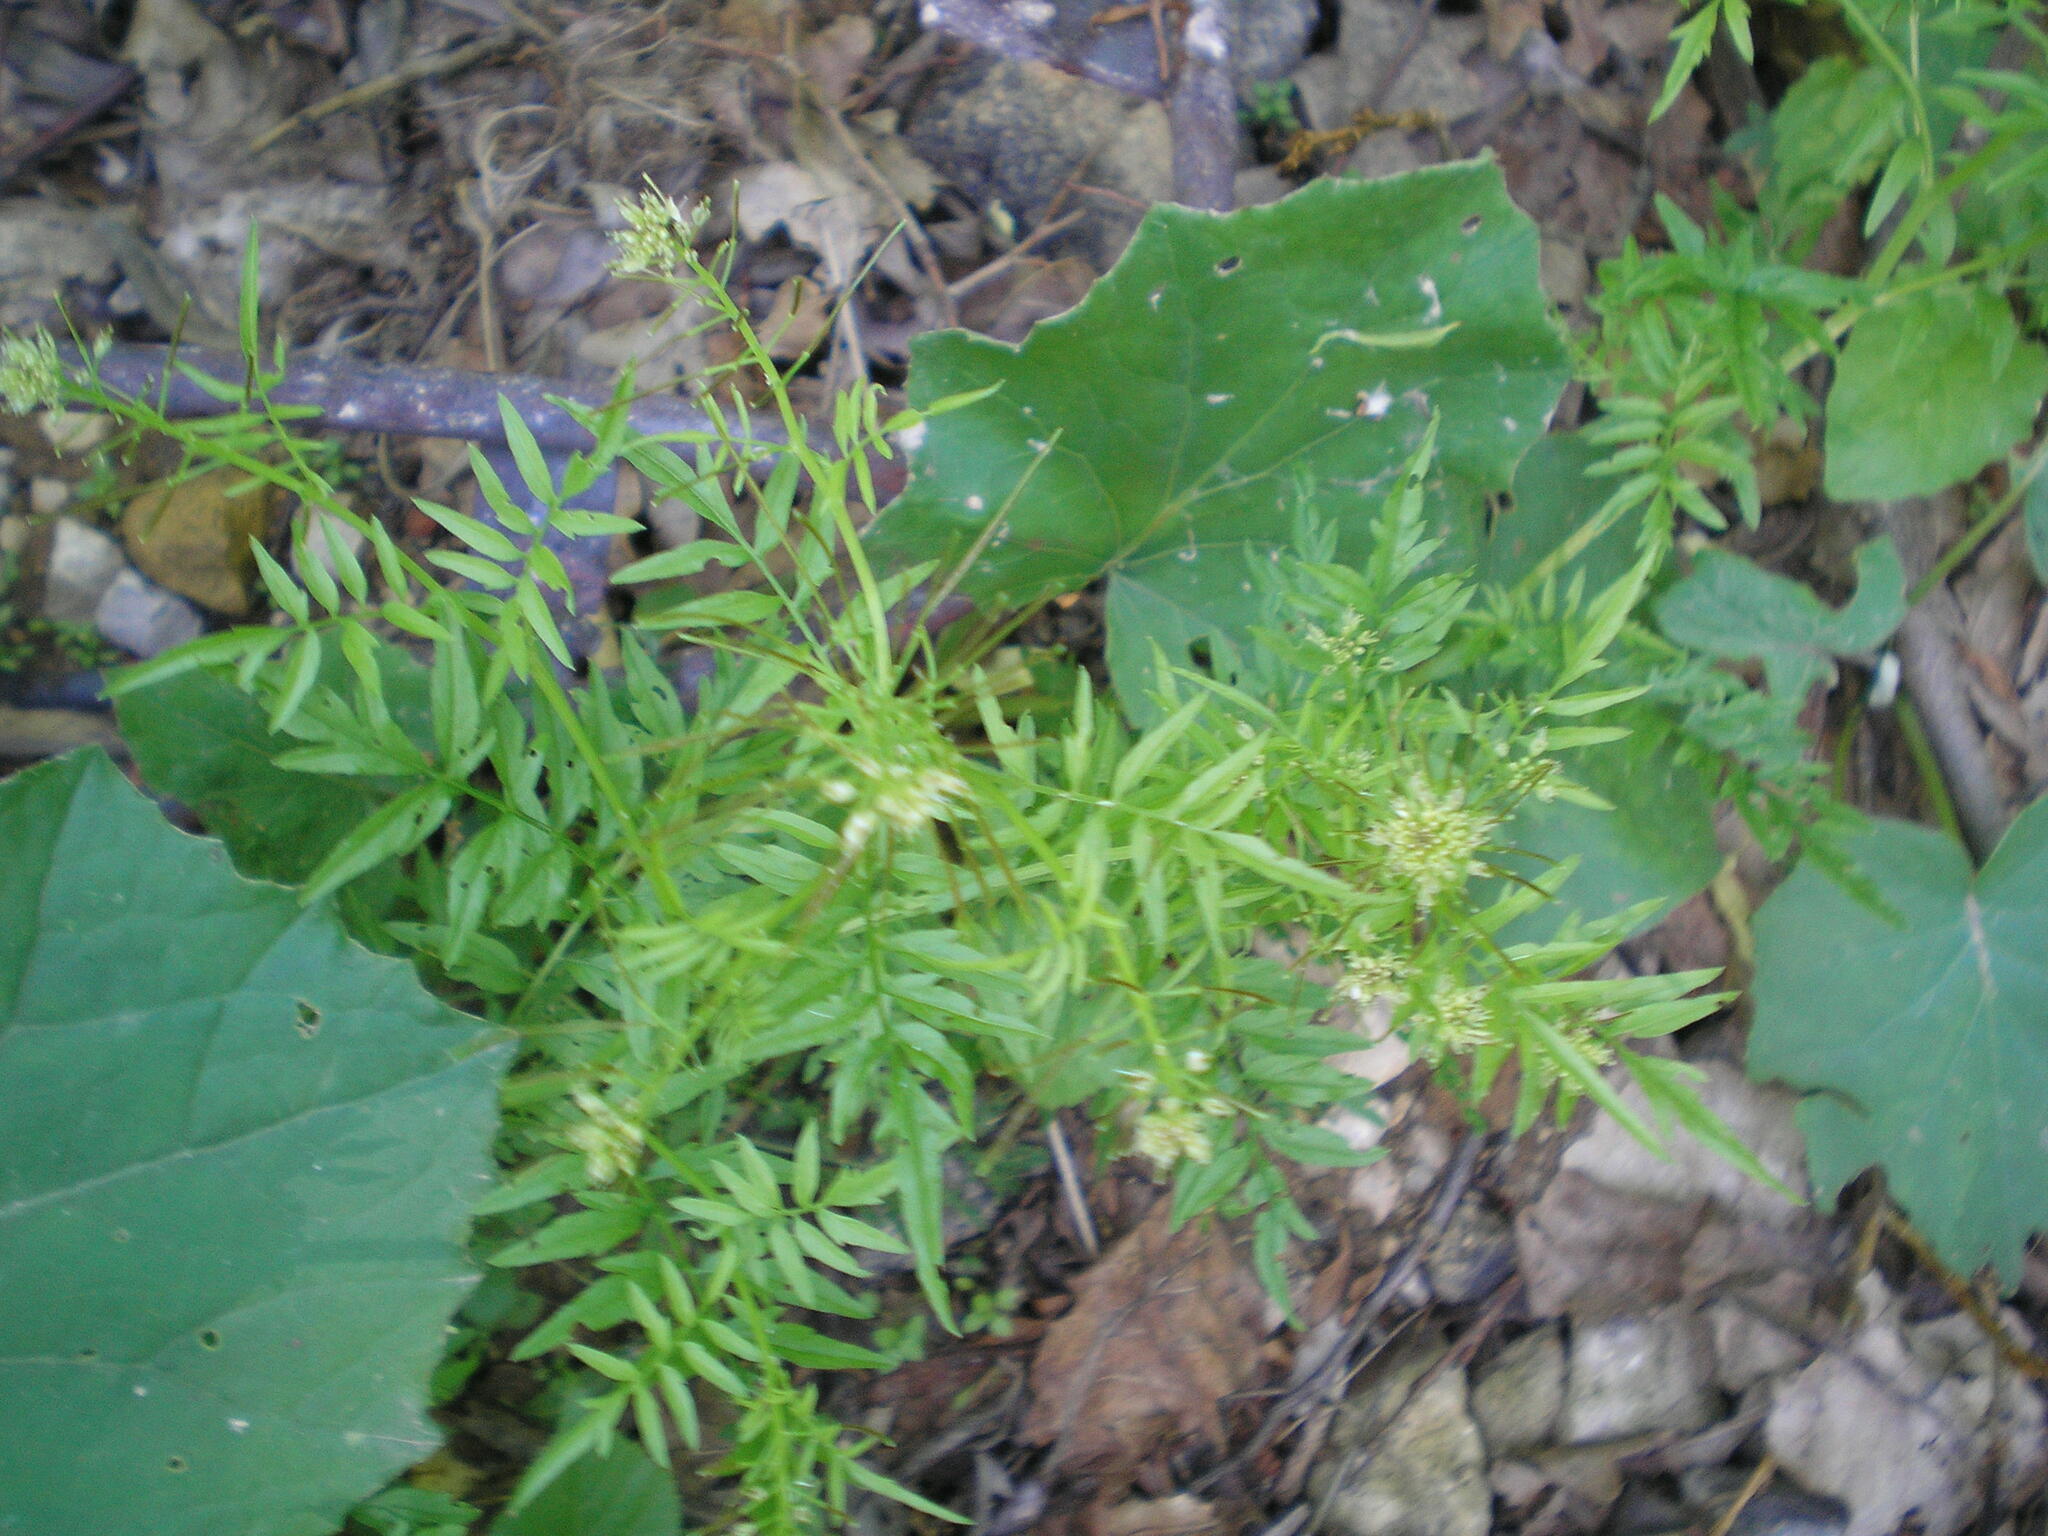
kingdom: Plantae
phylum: Tracheophyta
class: Magnoliopsida
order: Brassicales
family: Brassicaceae
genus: Cardamine
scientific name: Cardamine impatiens
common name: Narrow-leaved bitter-cress
